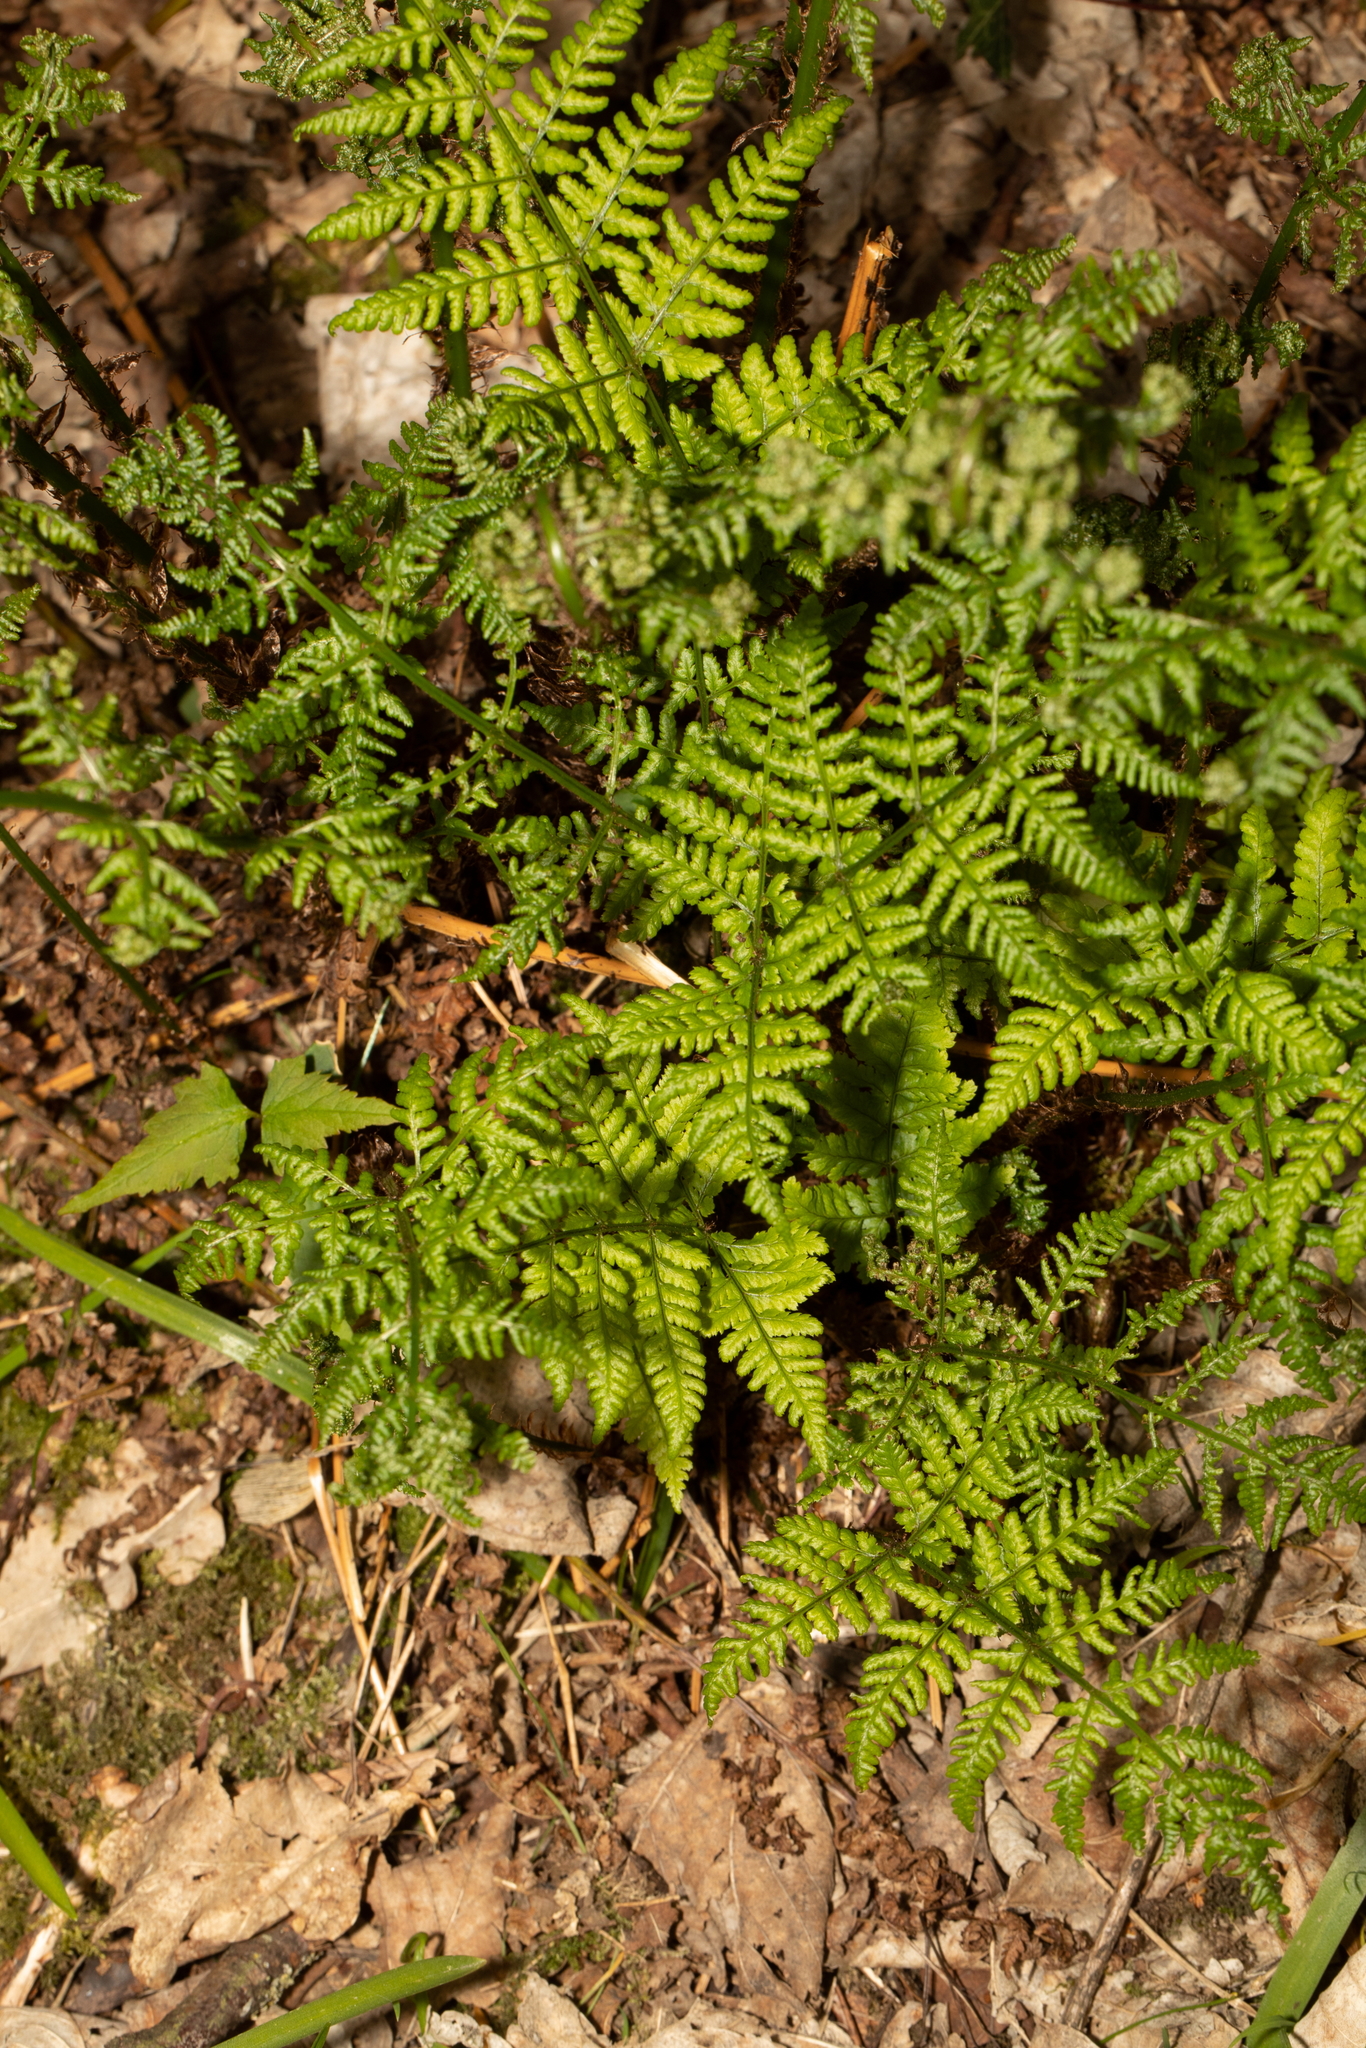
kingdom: Plantae
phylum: Tracheophyta
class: Polypodiopsida
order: Polypodiales
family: Dryopteridaceae
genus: Dryopteris
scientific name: Dryopteris dilatata
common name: Broad buckler-fern
